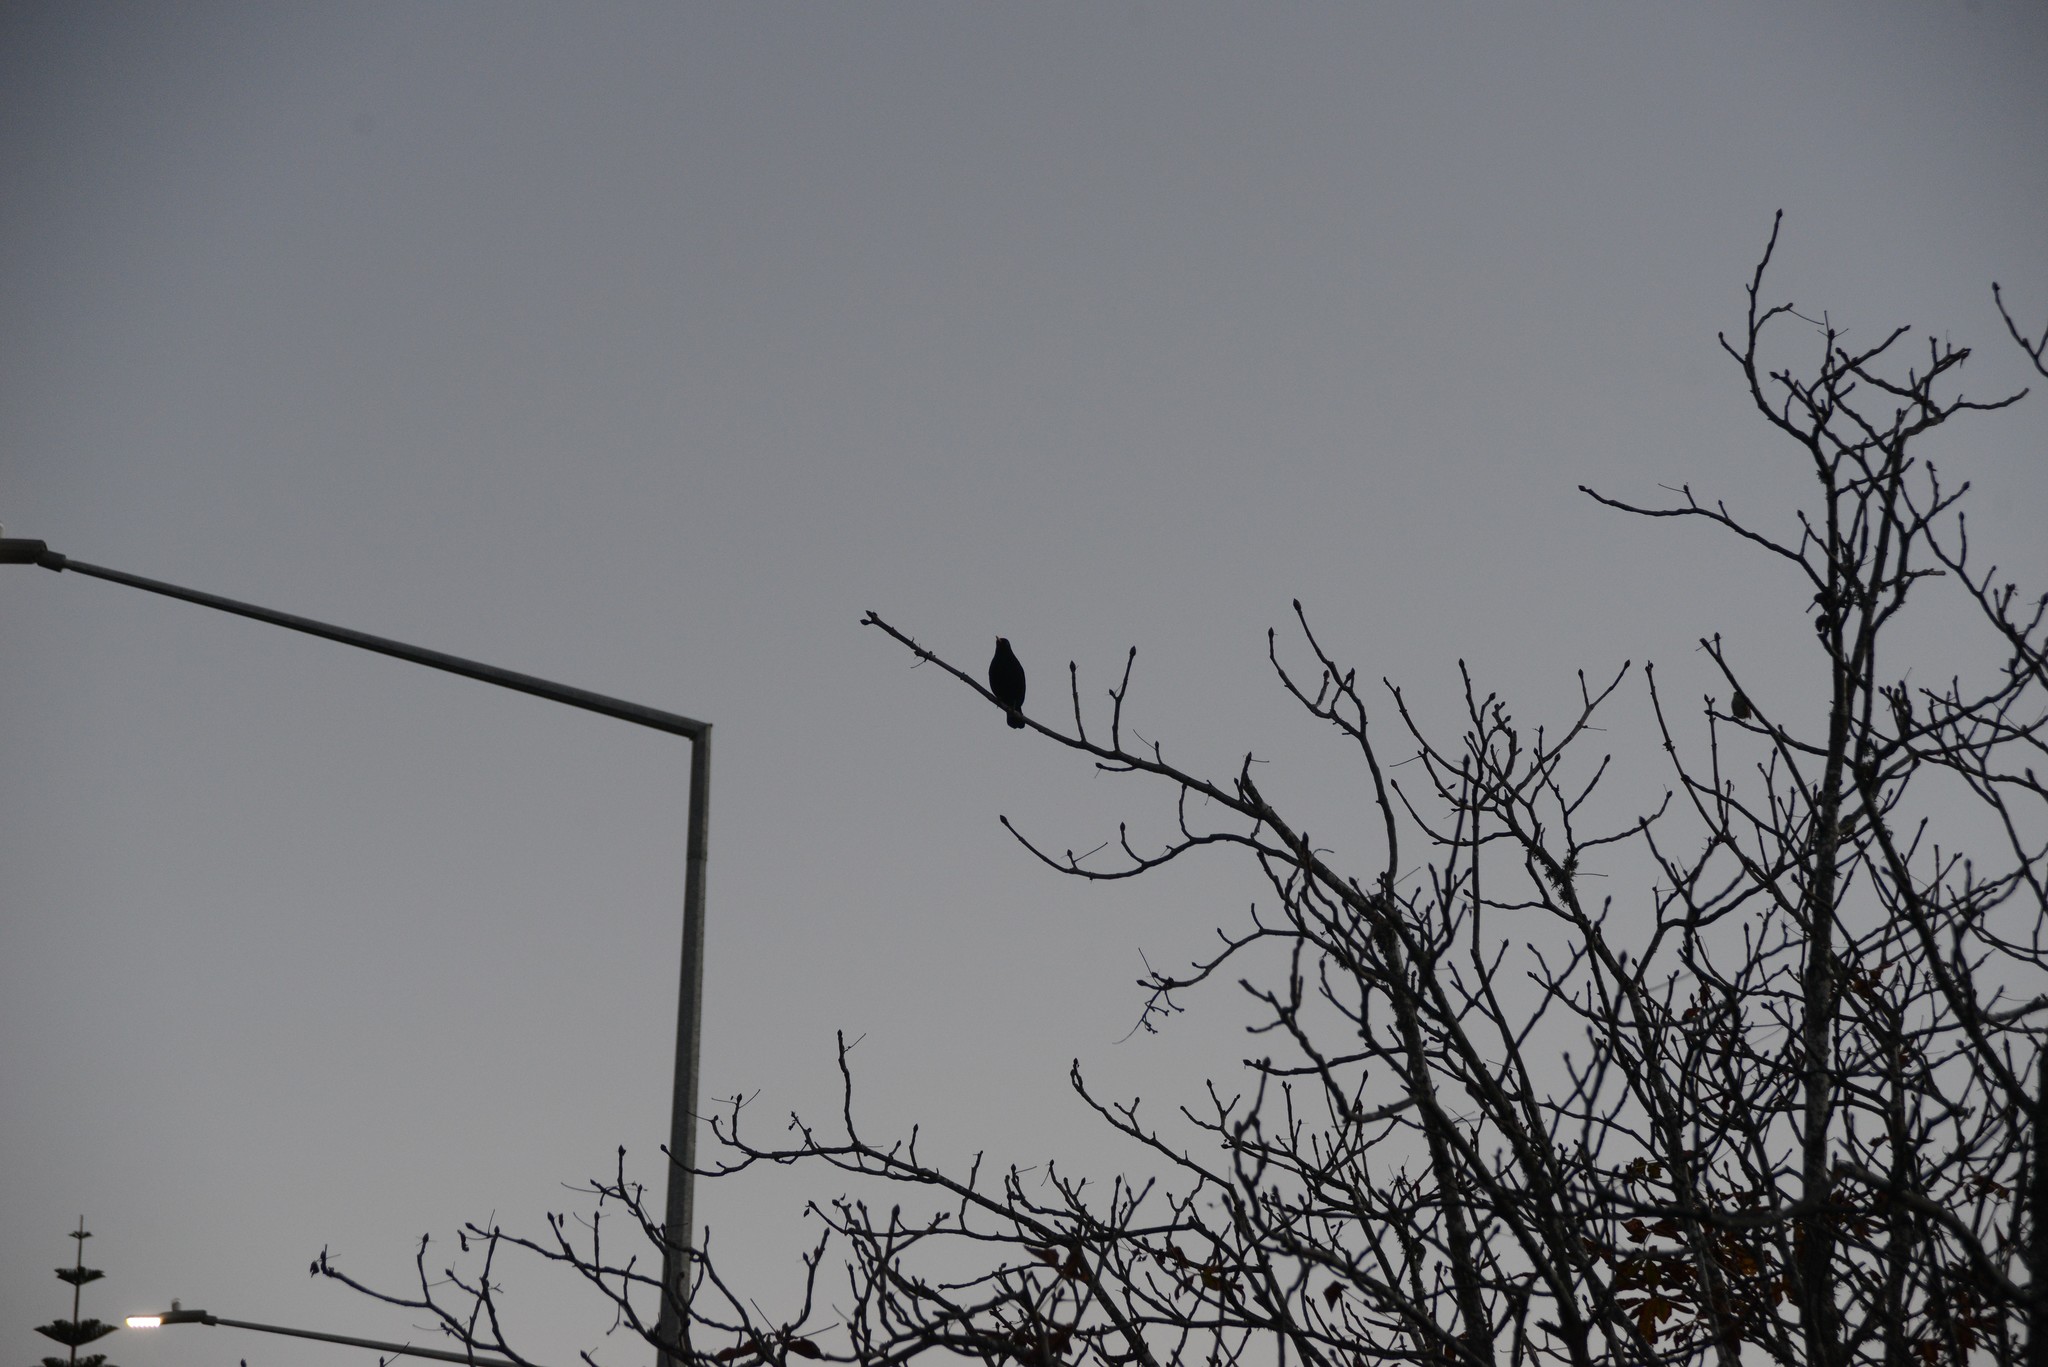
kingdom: Animalia
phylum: Chordata
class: Aves
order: Passeriformes
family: Turdidae
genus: Turdus
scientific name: Turdus merula
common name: Common blackbird
